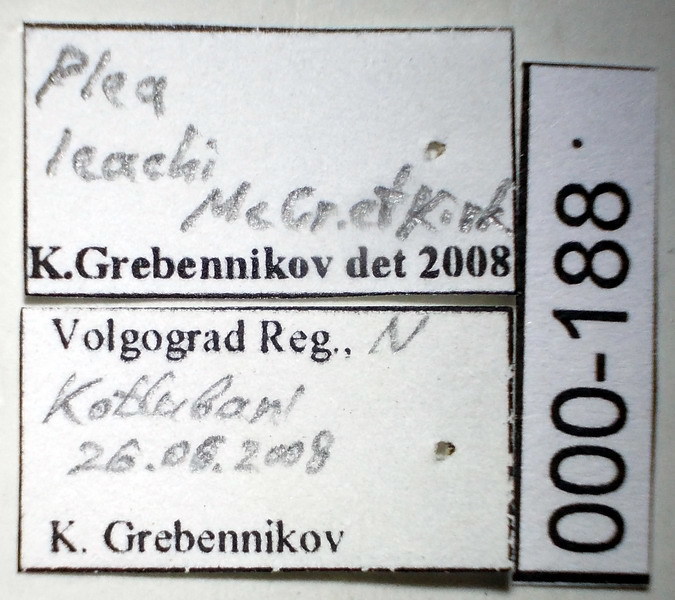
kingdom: Animalia
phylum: Arthropoda
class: Insecta
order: Hemiptera
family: Pleidae
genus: Plea
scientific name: Plea minutissima
